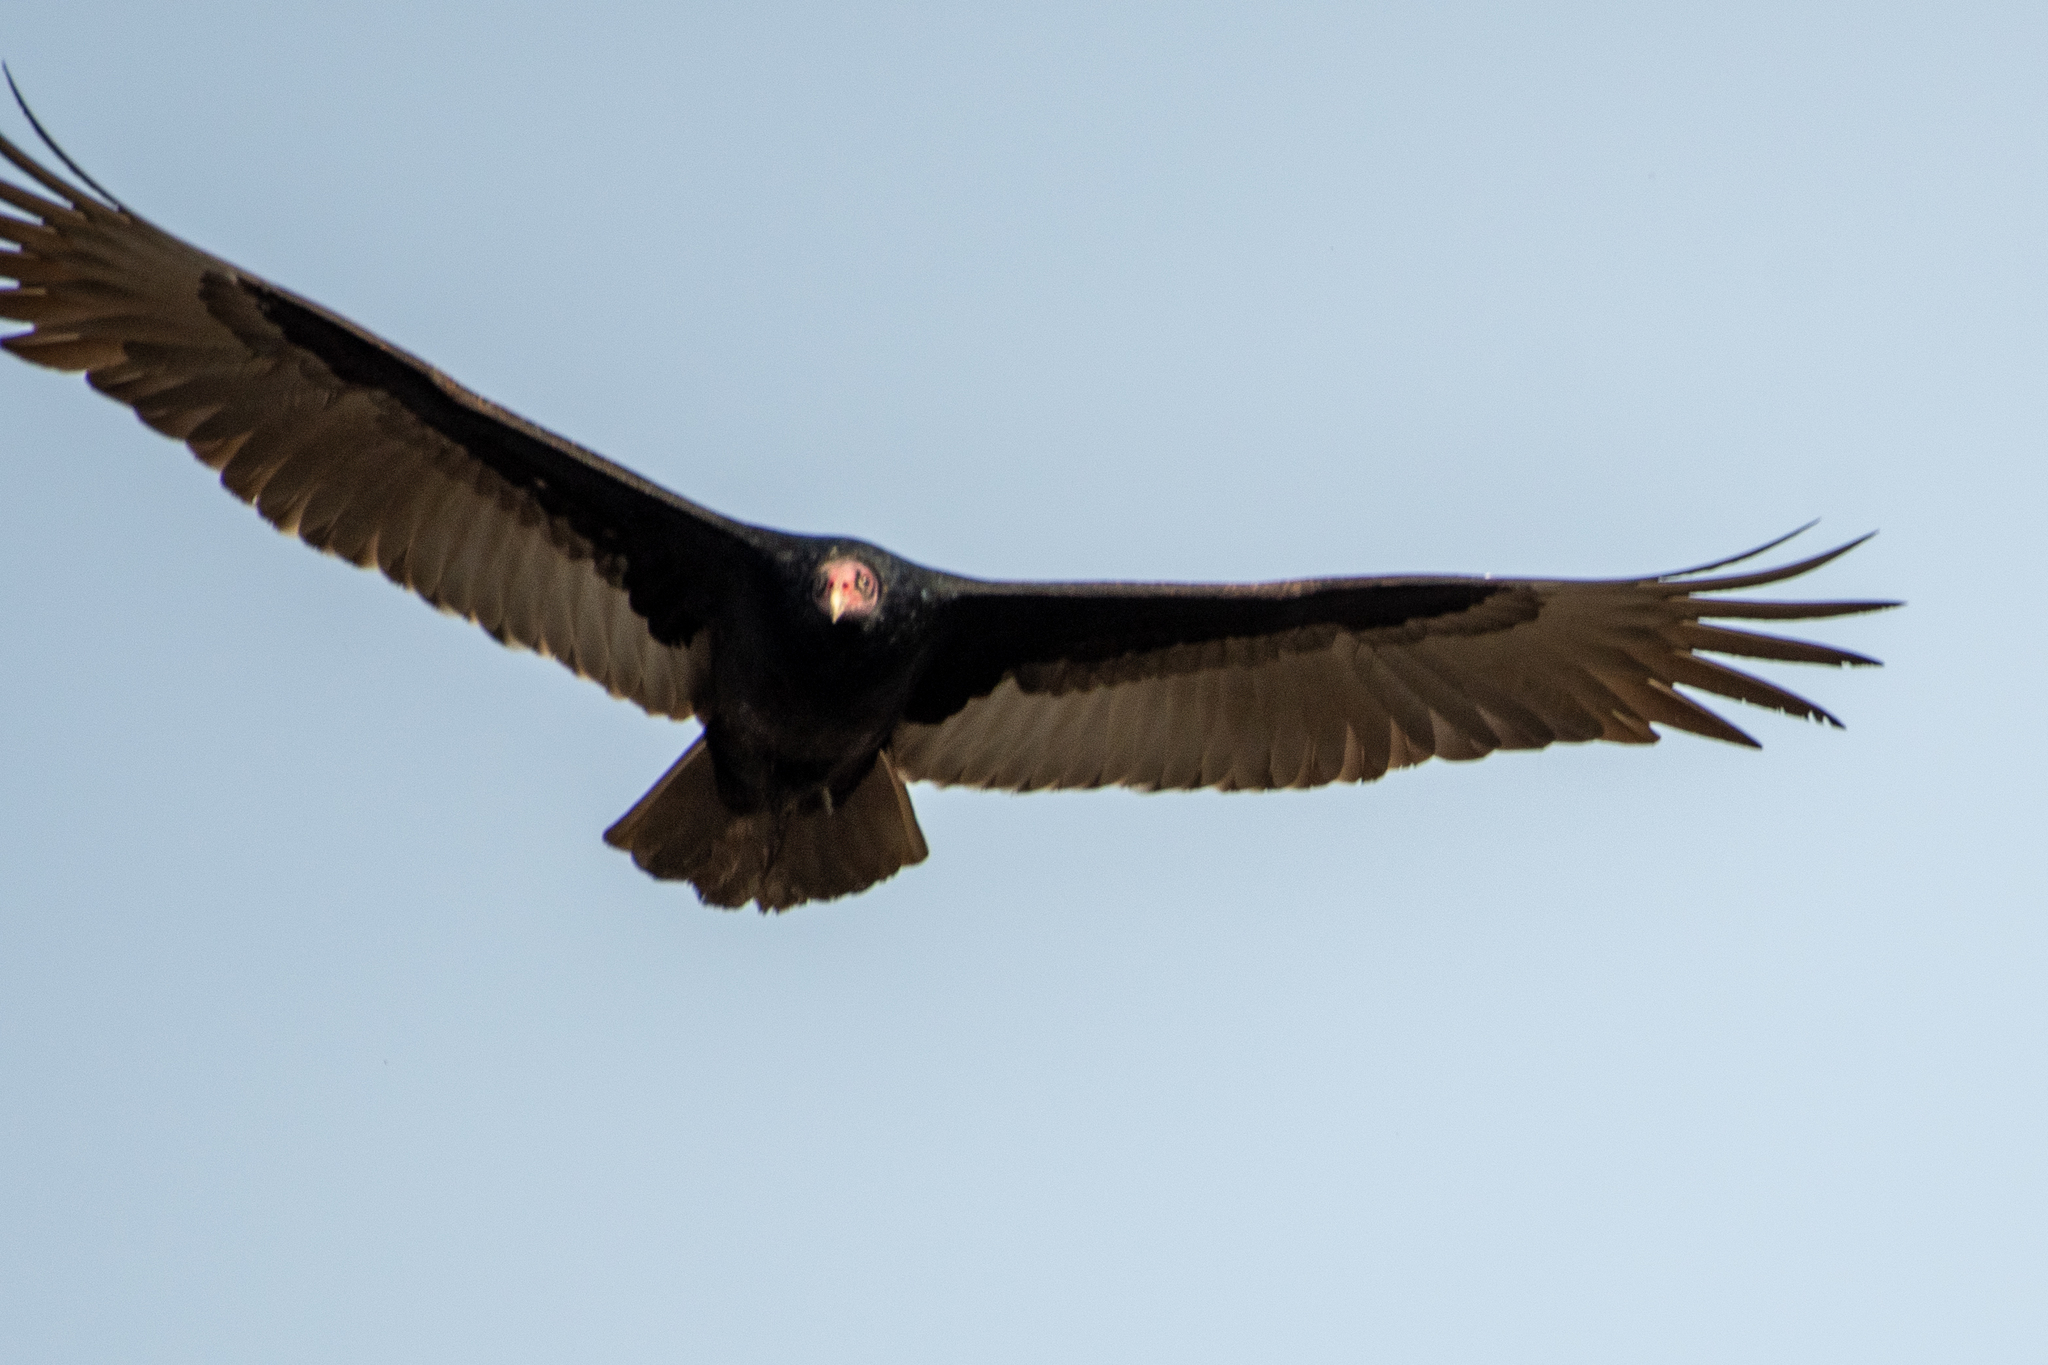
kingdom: Animalia
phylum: Chordata
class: Aves
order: Accipitriformes
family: Cathartidae
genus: Cathartes
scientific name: Cathartes aura
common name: Turkey vulture
